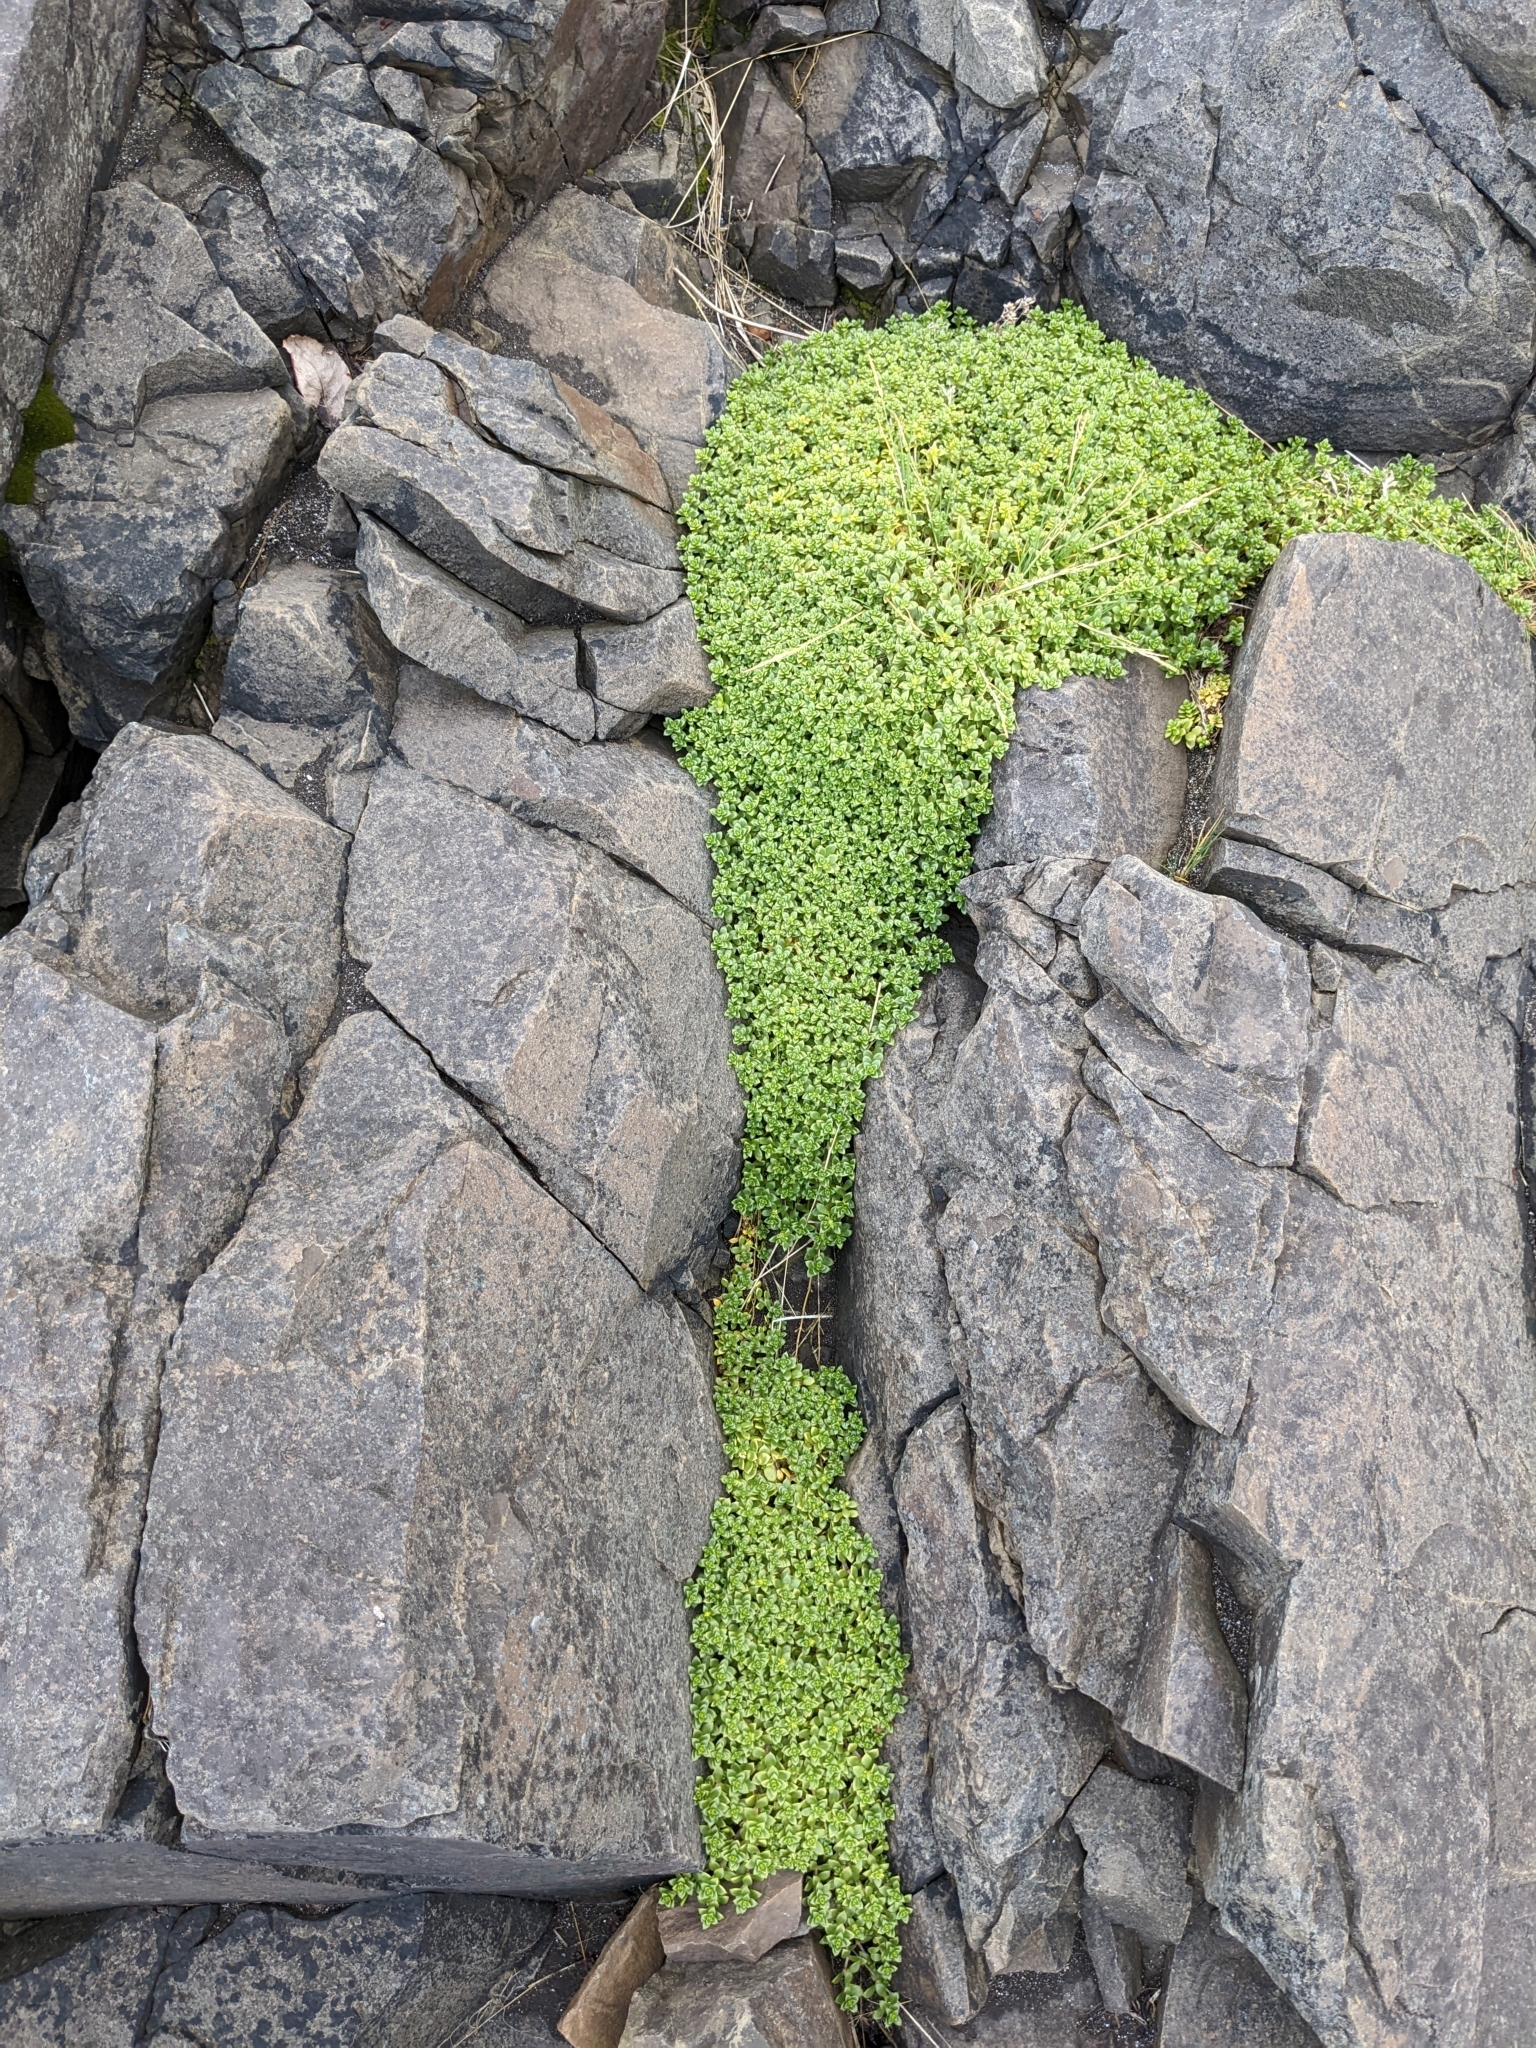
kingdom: Plantae
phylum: Tracheophyta
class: Magnoliopsida
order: Caryophyllales
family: Caryophyllaceae
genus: Honckenya
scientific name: Honckenya peploides
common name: Sea sandwort
